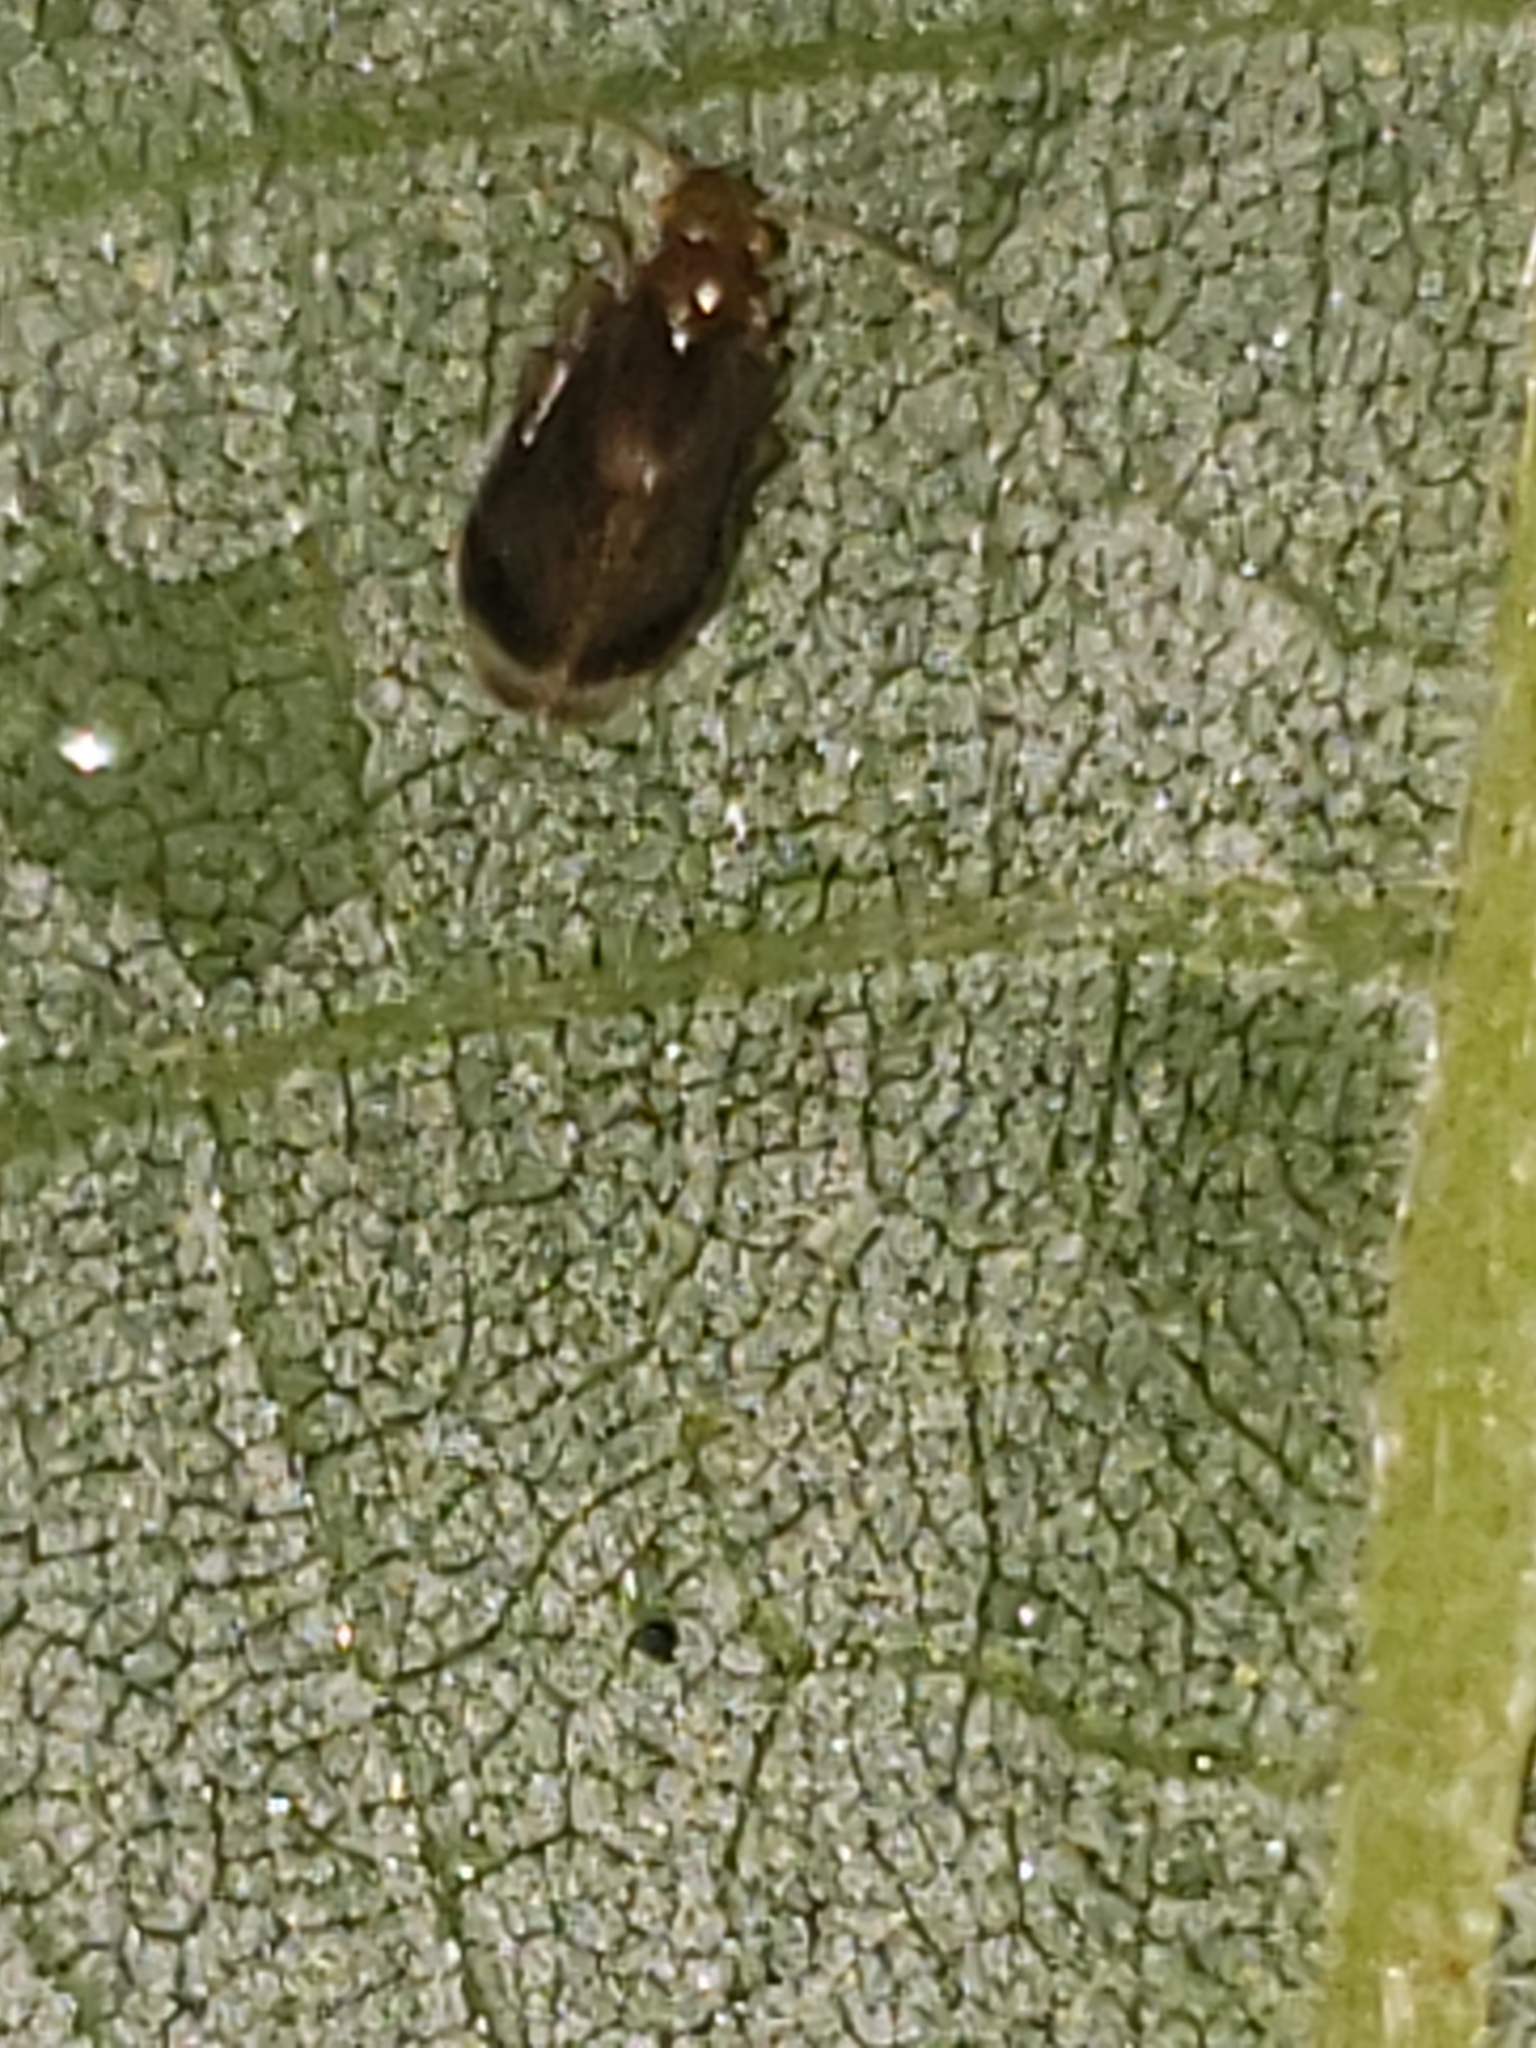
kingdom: Animalia
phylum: Arthropoda
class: Insecta
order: Psocodea
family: Amphipsocidae
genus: Polypsocus
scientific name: Polypsocus corruptus
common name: Corrupt barklouse
